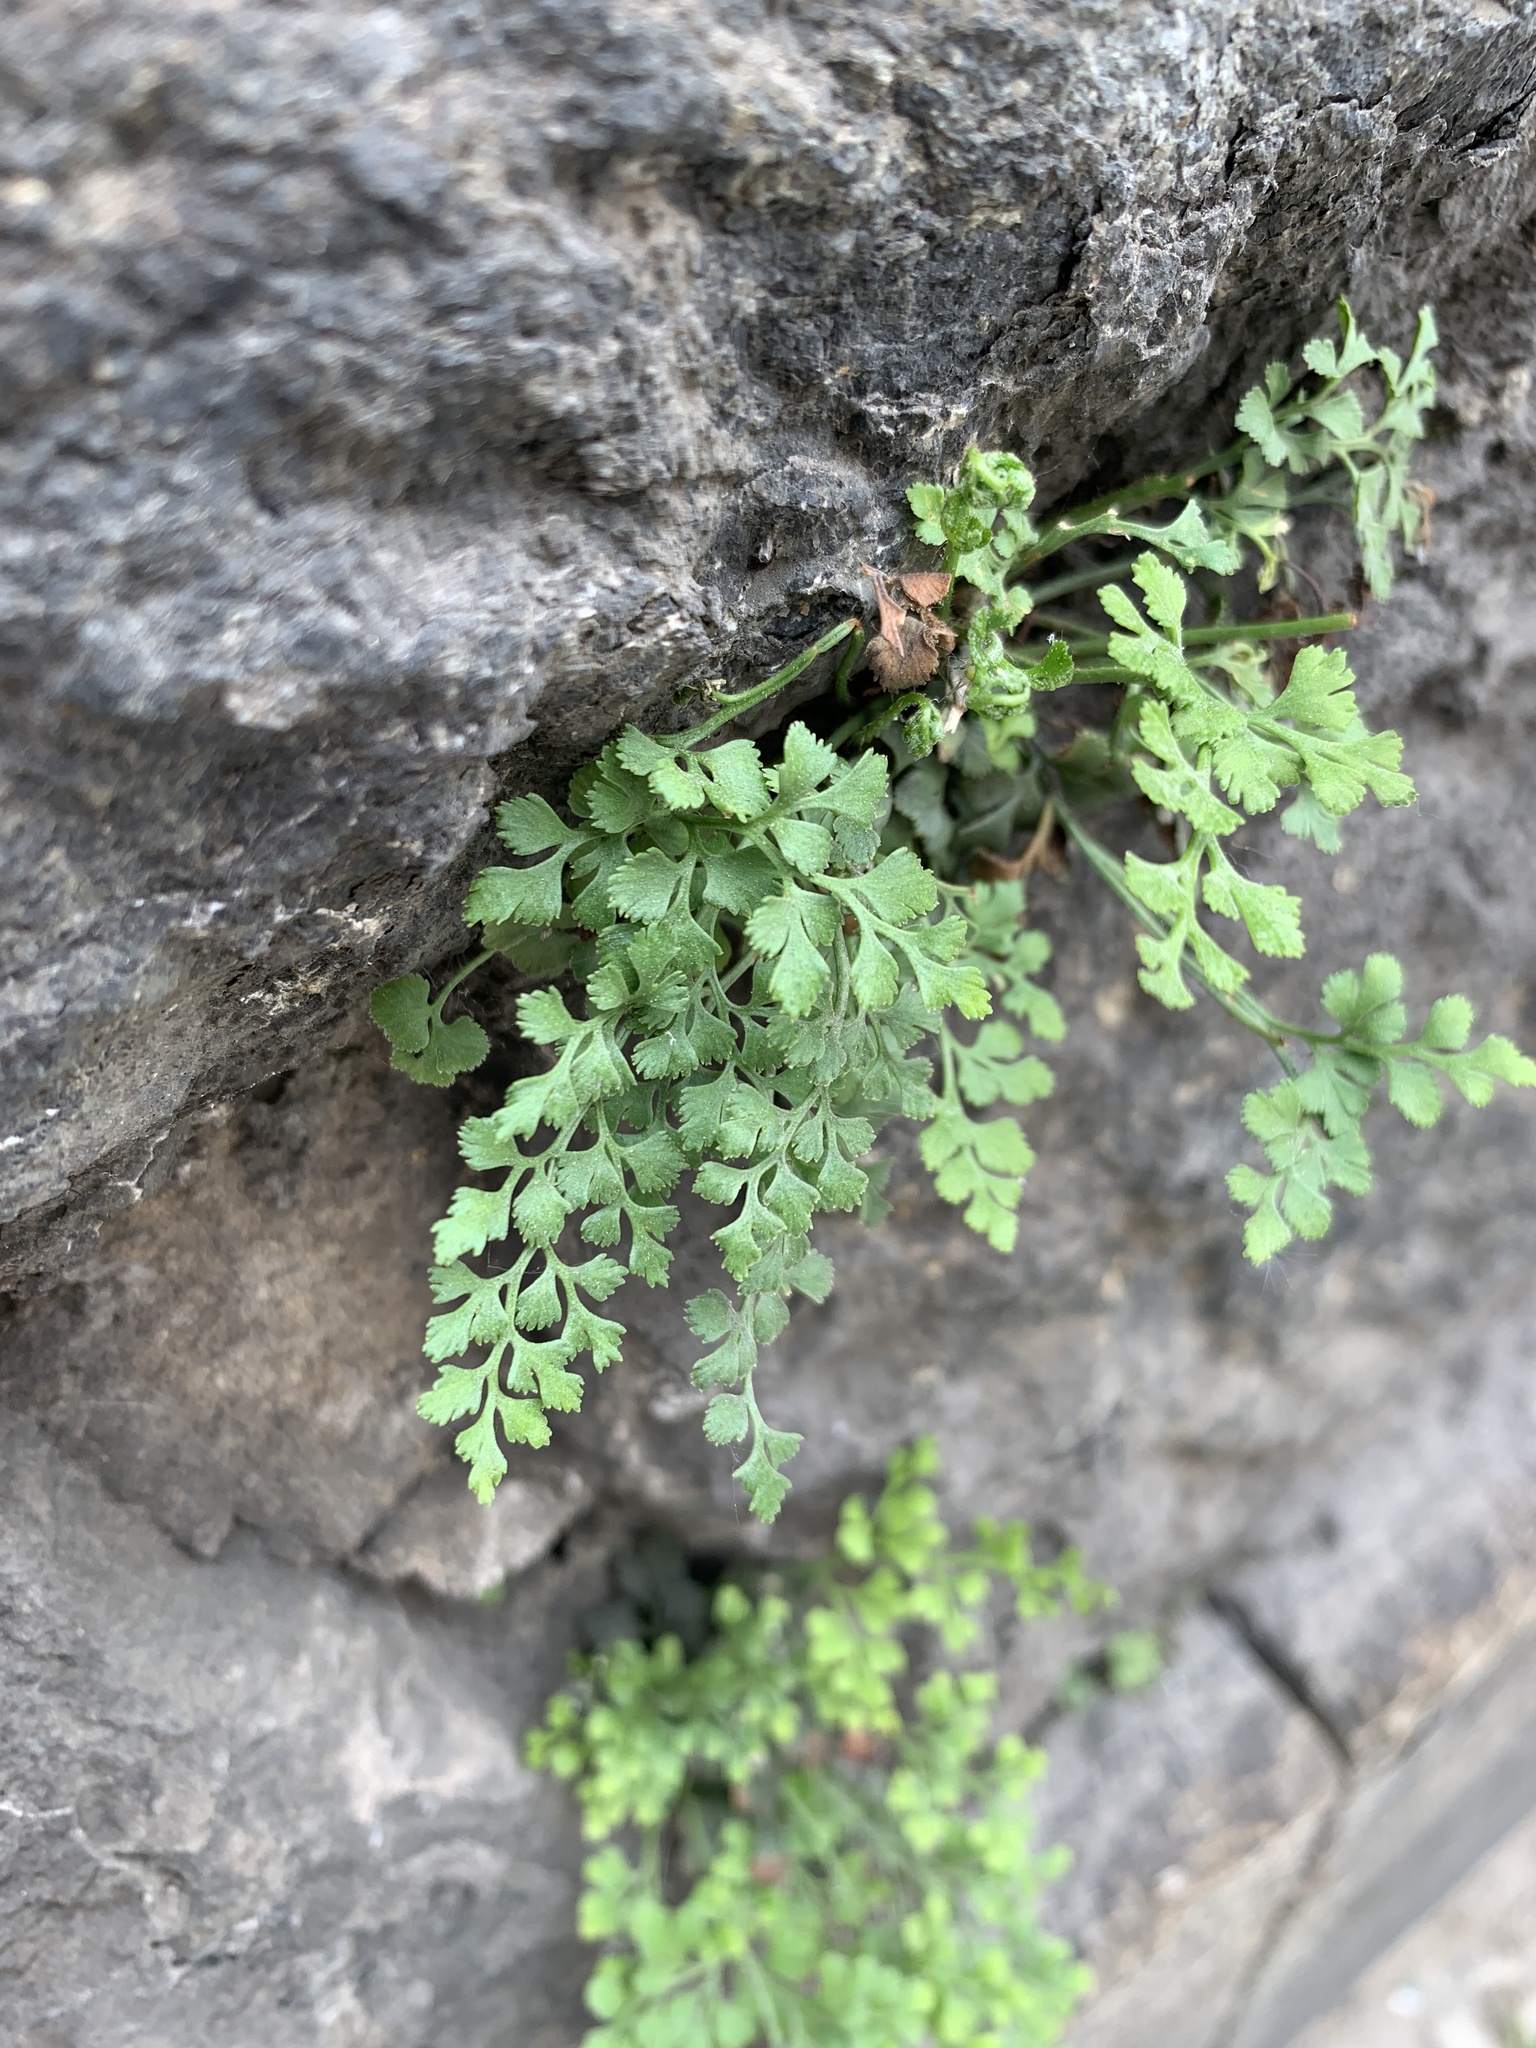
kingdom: Plantae
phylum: Tracheophyta
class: Polypodiopsida
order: Polypodiales
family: Aspleniaceae
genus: Asplenium
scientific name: Asplenium ruta-muraria
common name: Wall-rue
